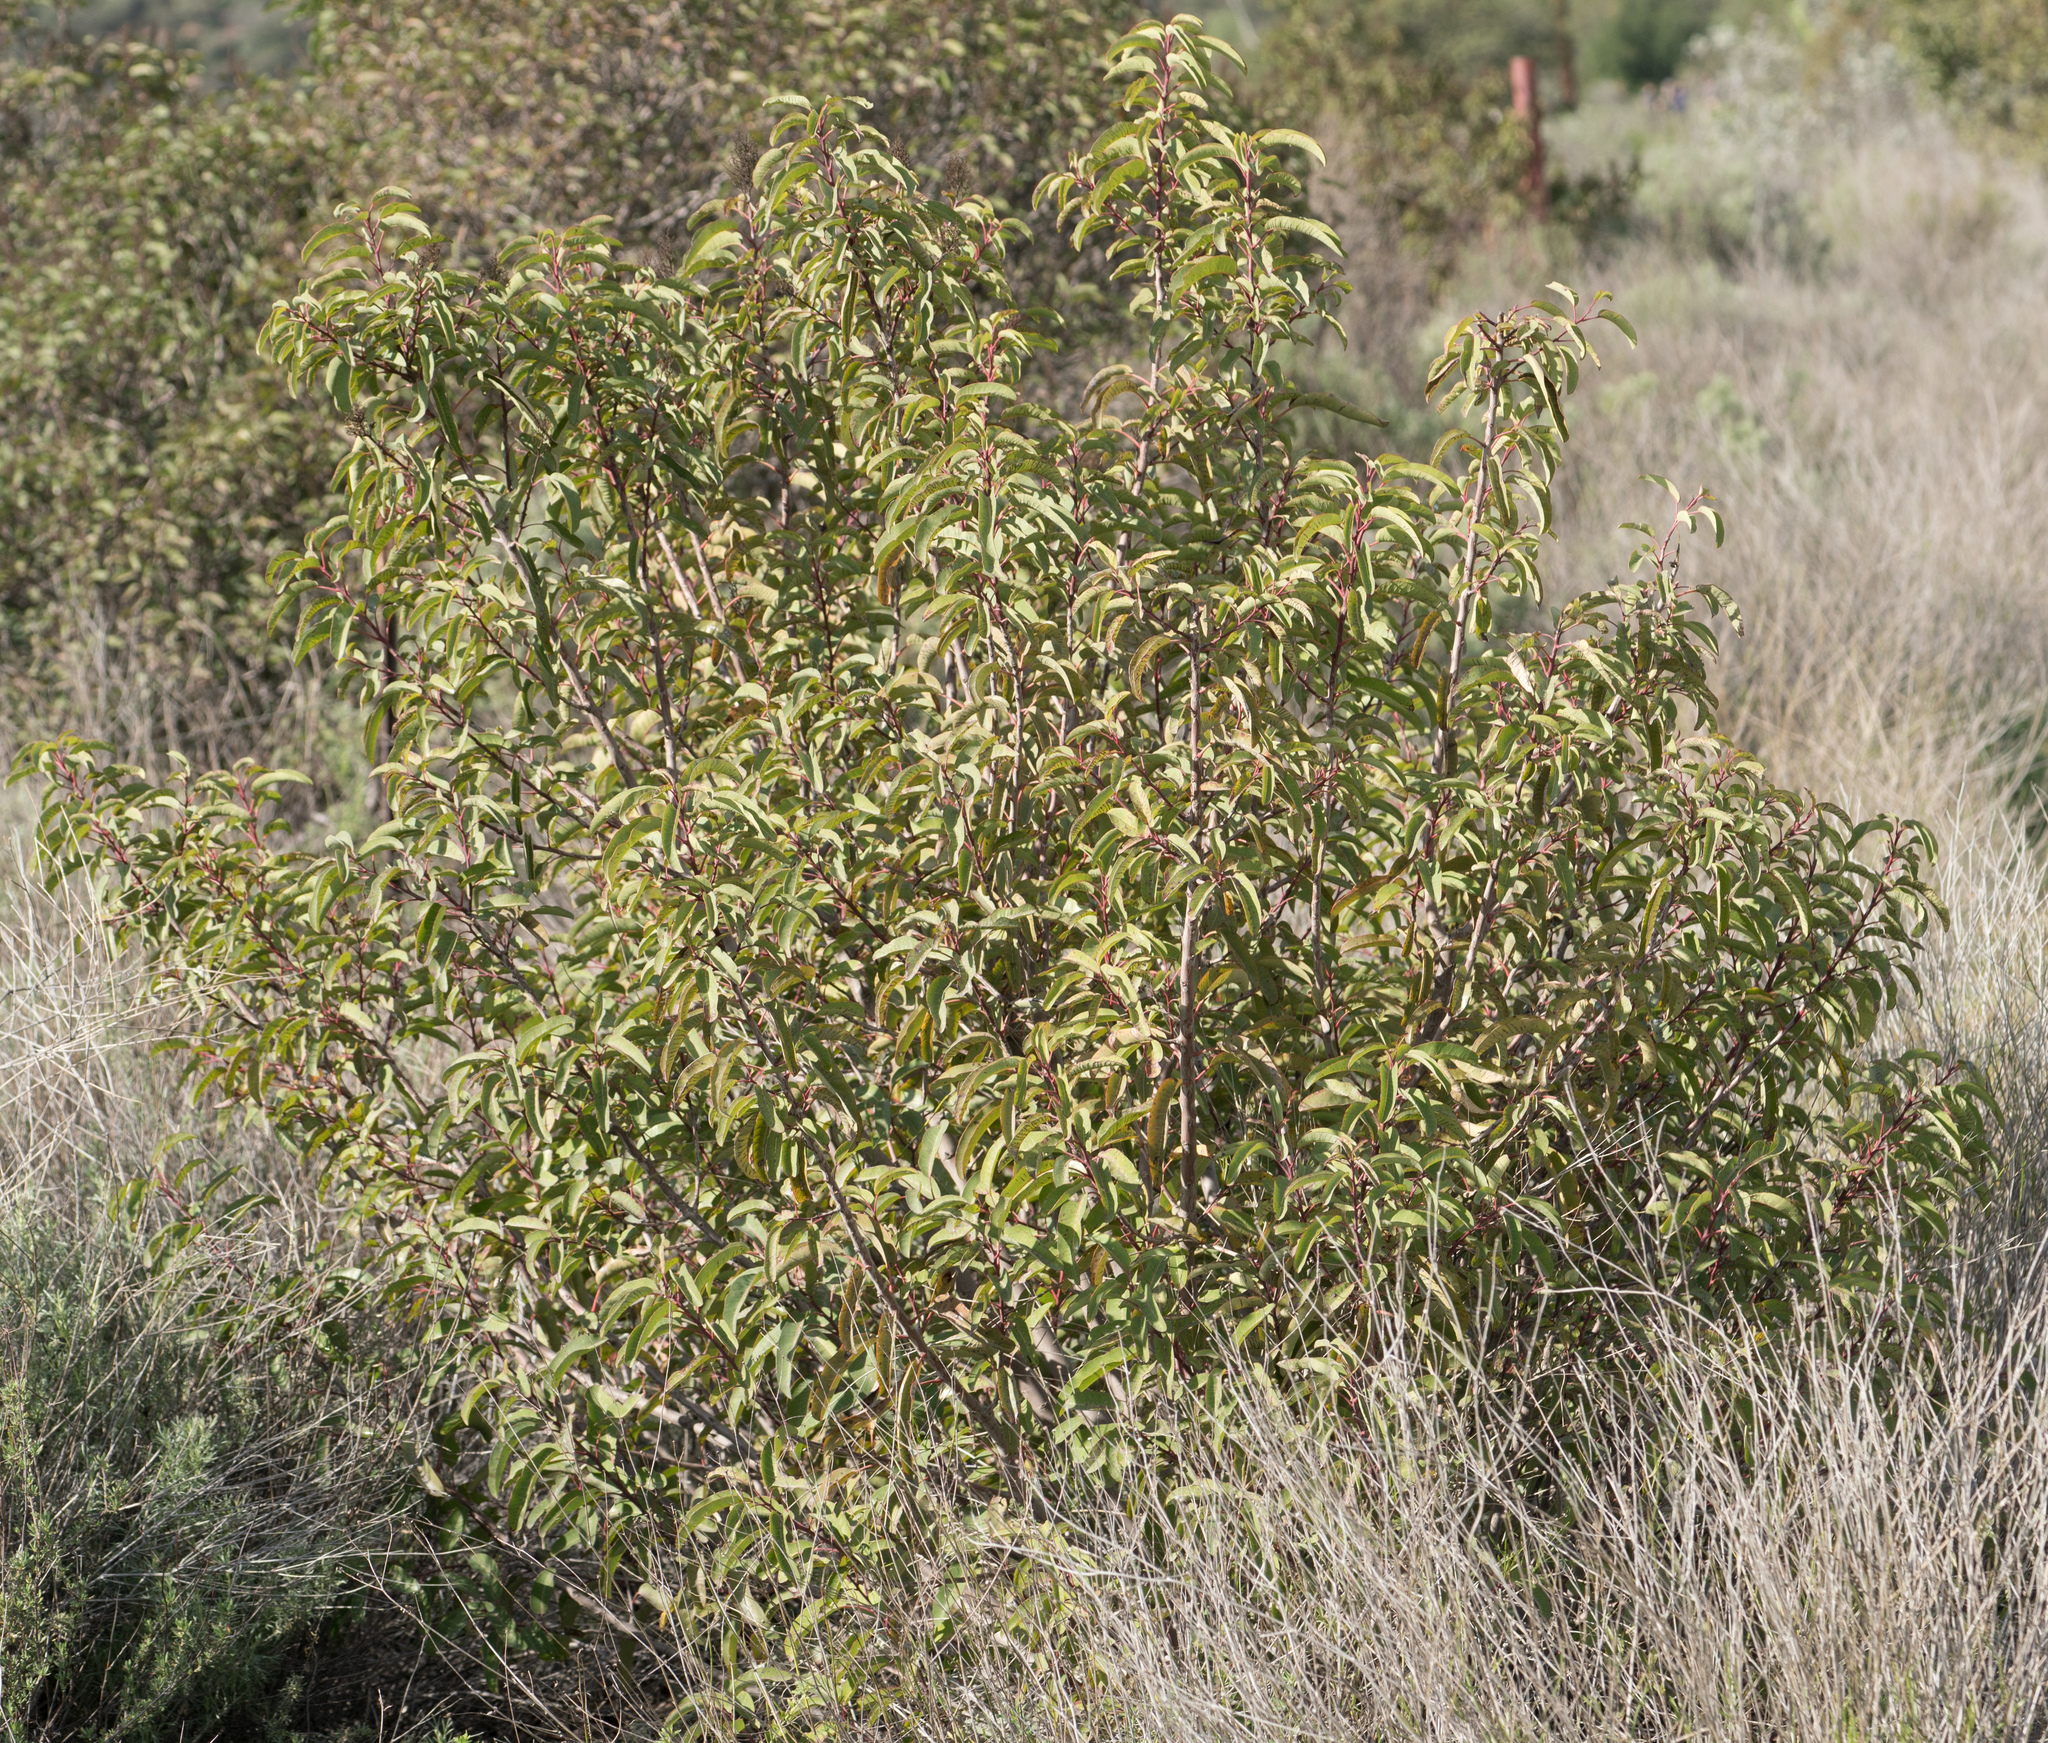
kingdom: Plantae
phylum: Tracheophyta
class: Magnoliopsida
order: Sapindales
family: Anacardiaceae
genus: Malosma
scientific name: Malosma laurina
